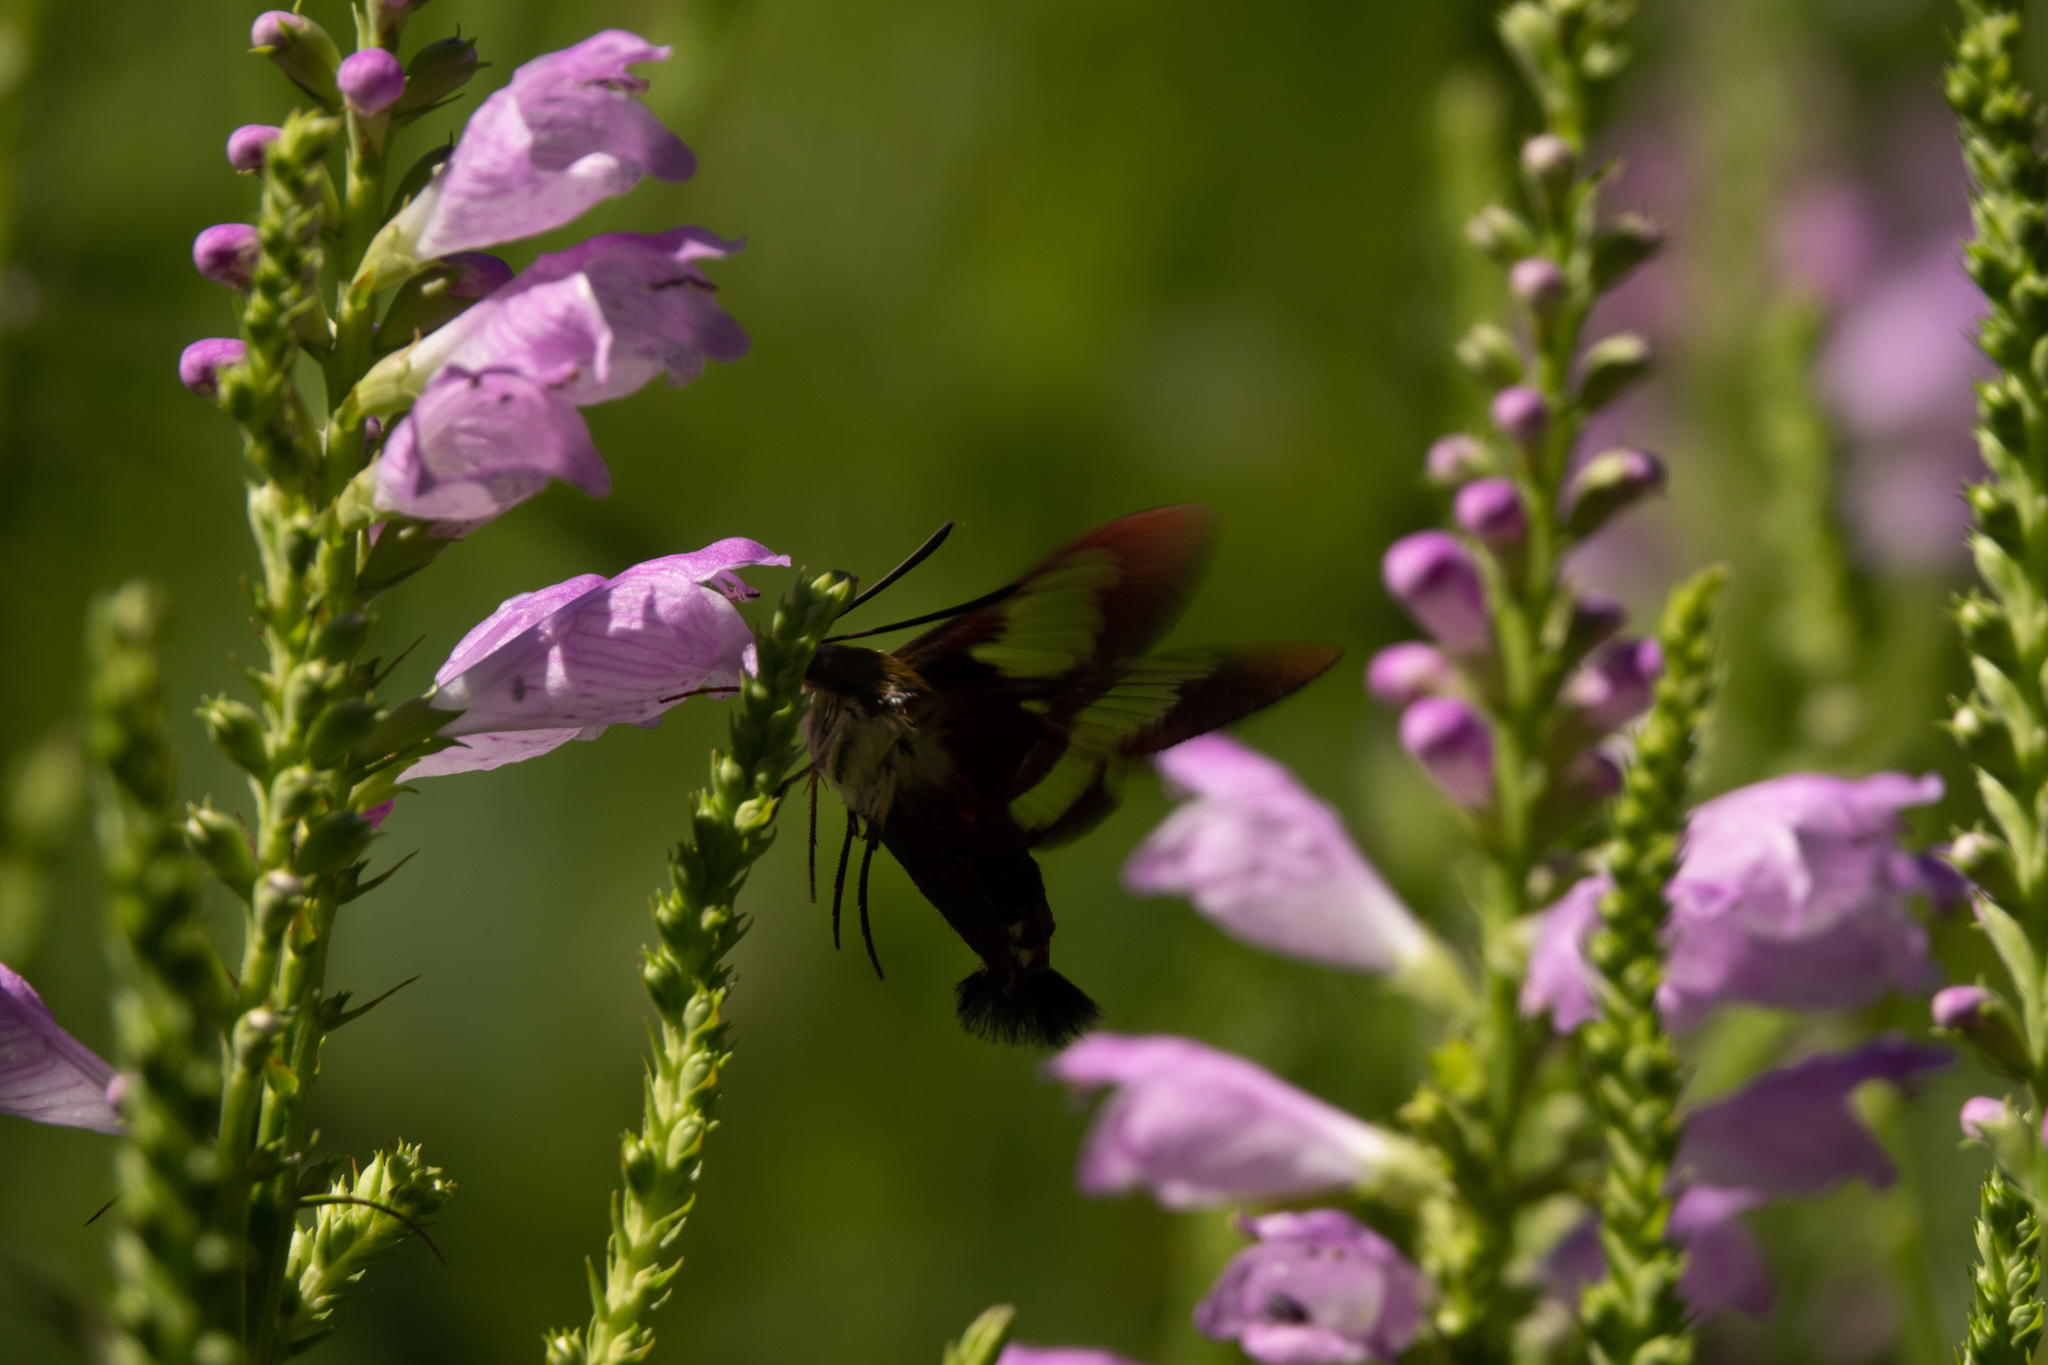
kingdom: Animalia
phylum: Arthropoda
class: Insecta
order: Lepidoptera
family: Sphingidae
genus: Hemaris
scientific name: Hemaris thysbe
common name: Common clear-wing
